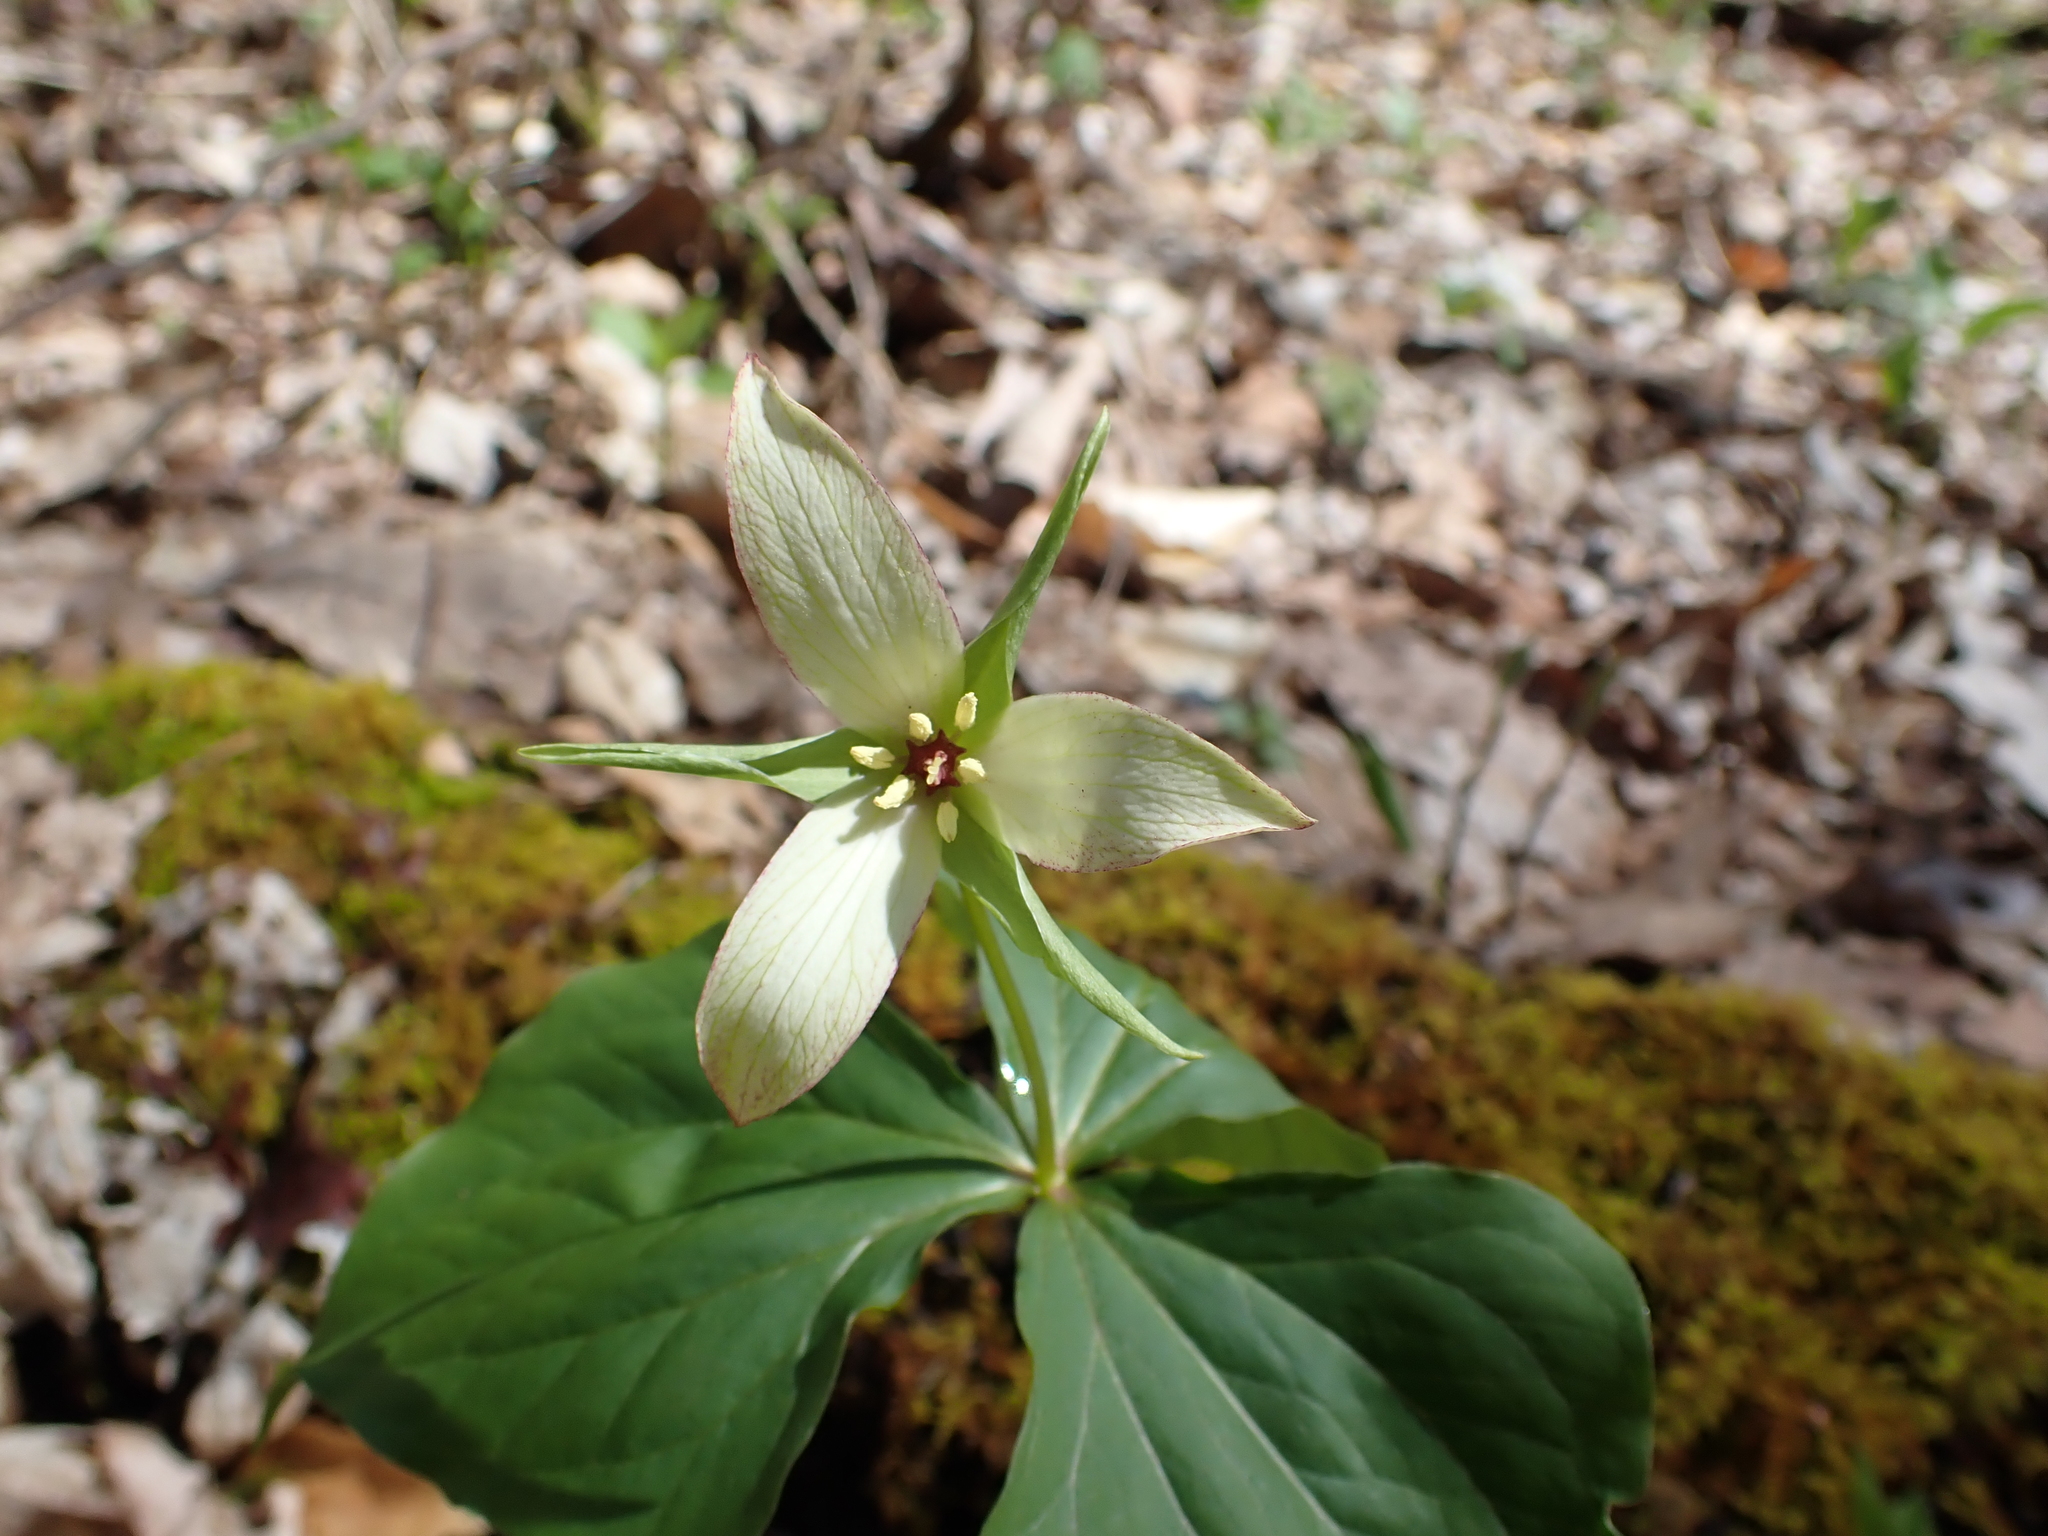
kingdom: Plantae
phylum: Tracheophyta
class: Liliopsida
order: Liliales
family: Melanthiaceae
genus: Trillium
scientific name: Trillium erectum
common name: Purple trillium
